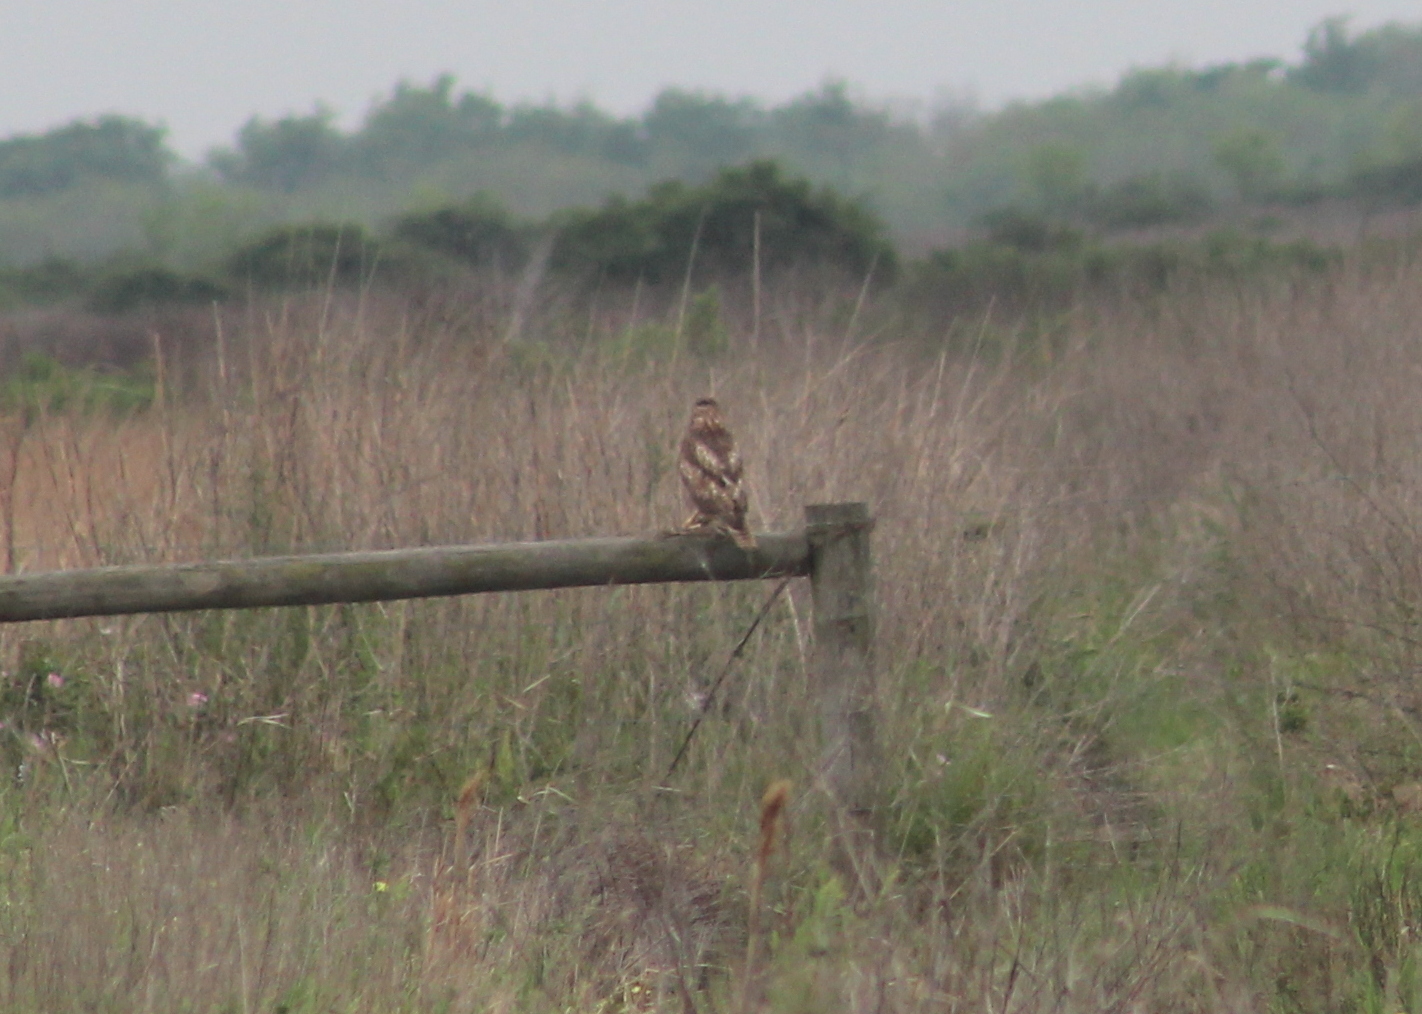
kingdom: Animalia
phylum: Chordata
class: Aves
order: Accipitriformes
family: Accipitridae
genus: Buteo
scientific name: Buteo jamaicensis
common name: Red-tailed hawk
